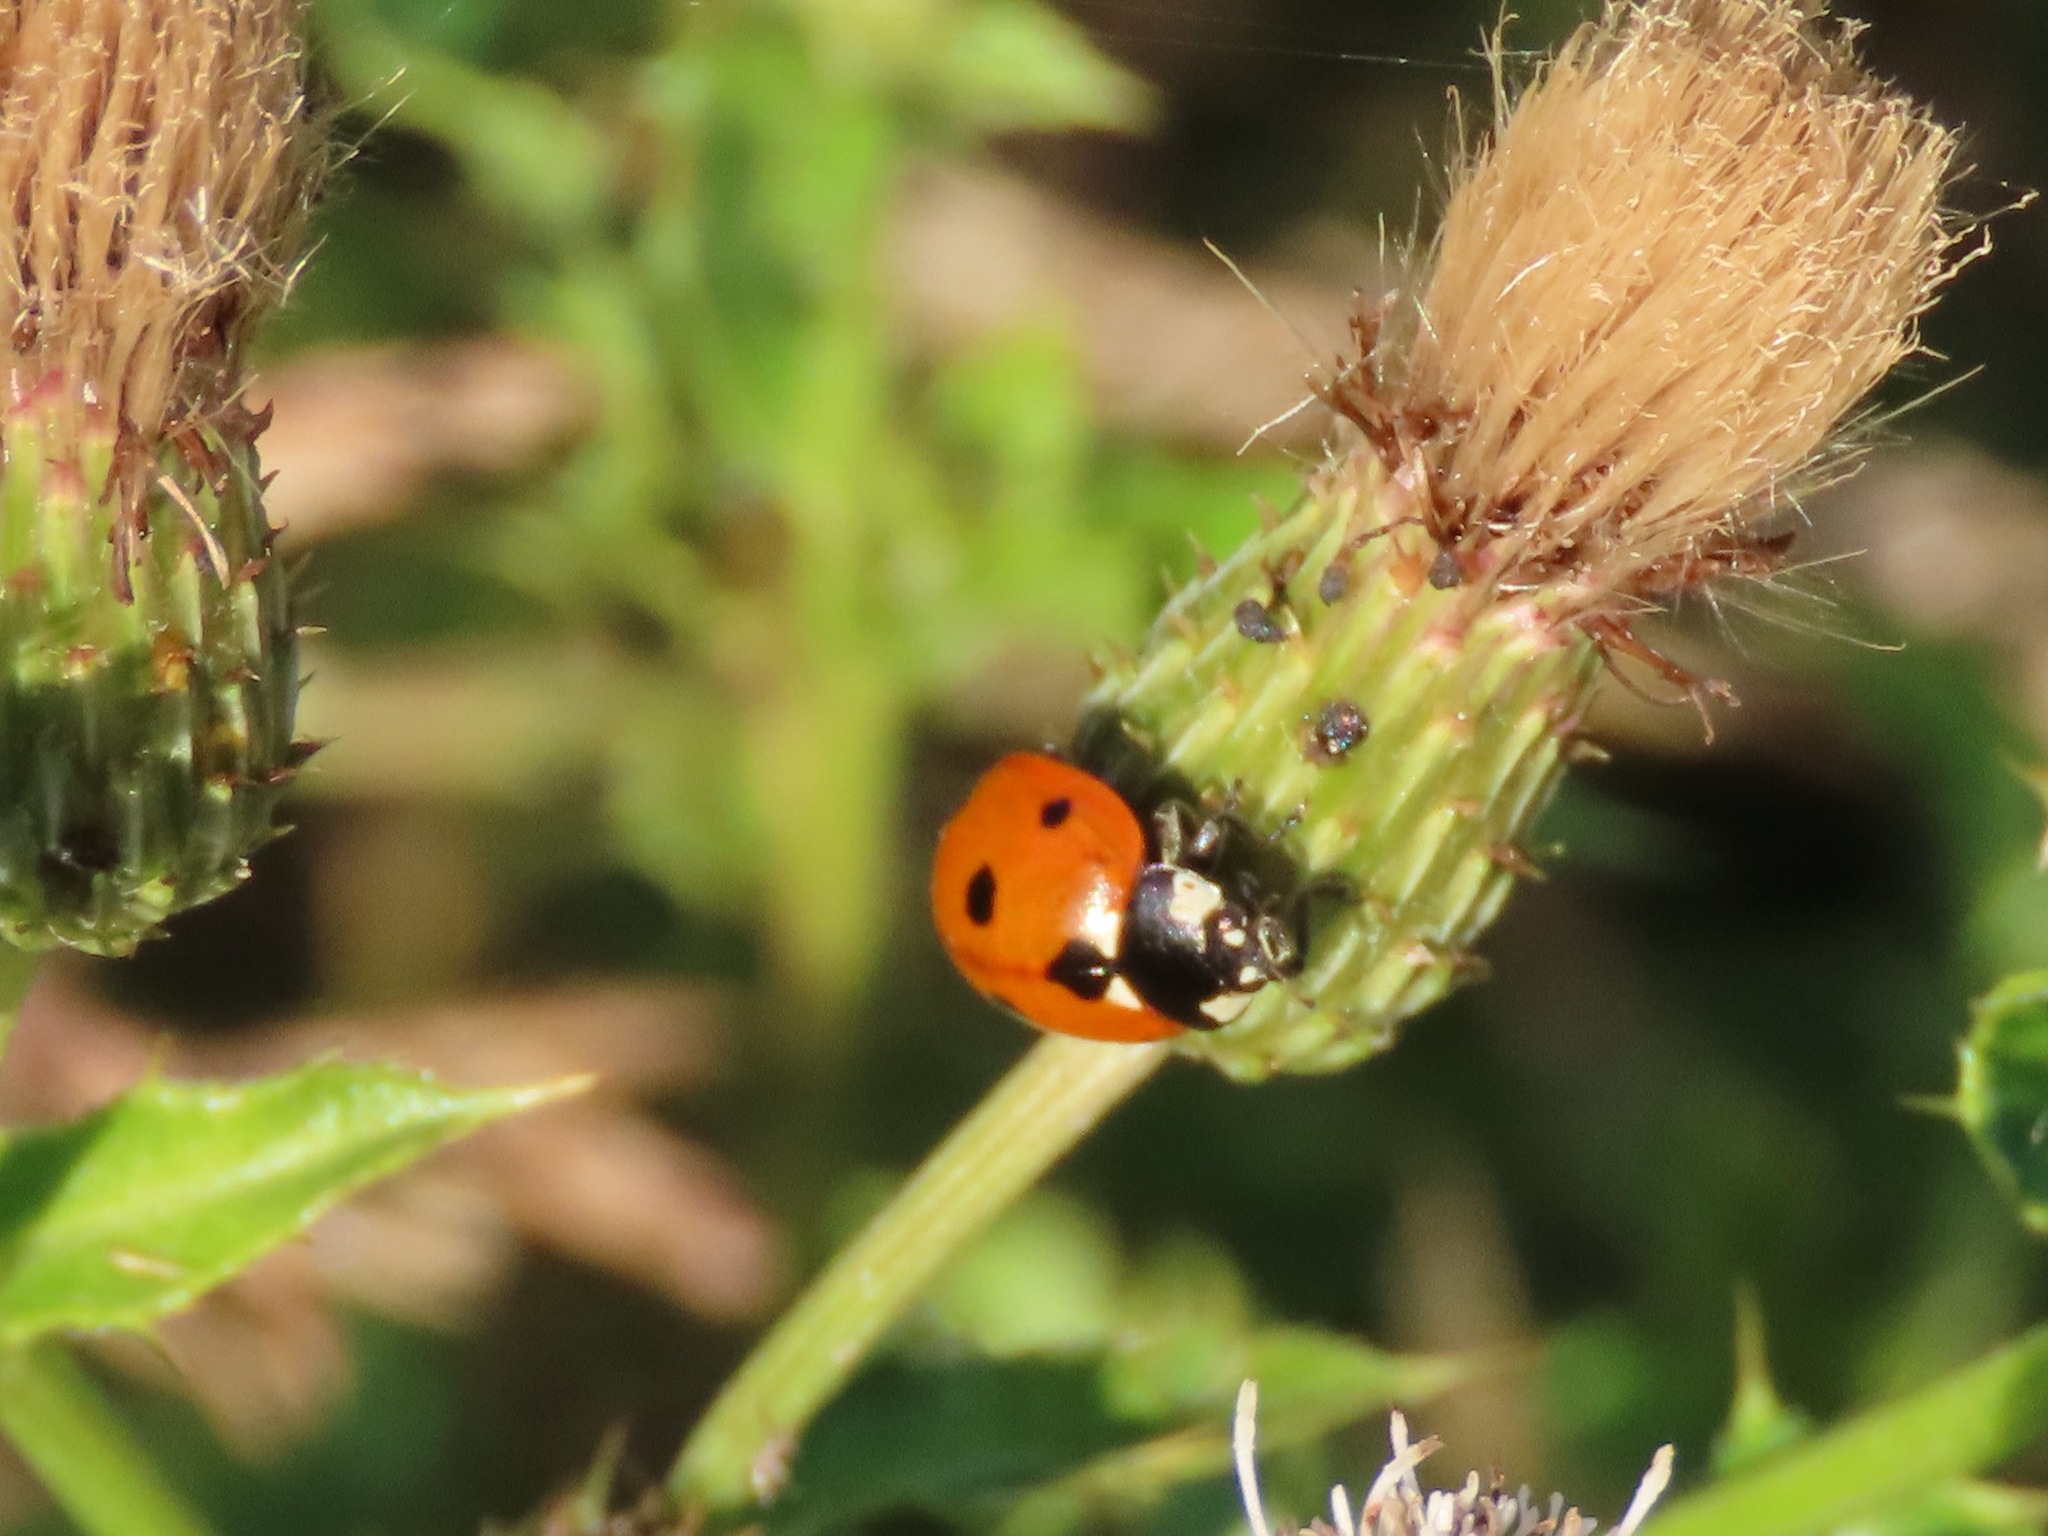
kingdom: Animalia
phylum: Arthropoda
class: Insecta
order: Coleoptera
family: Coccinellidae
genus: Coccinella
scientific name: Coccinella septempunctata
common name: Sevenspotted lady beetle
